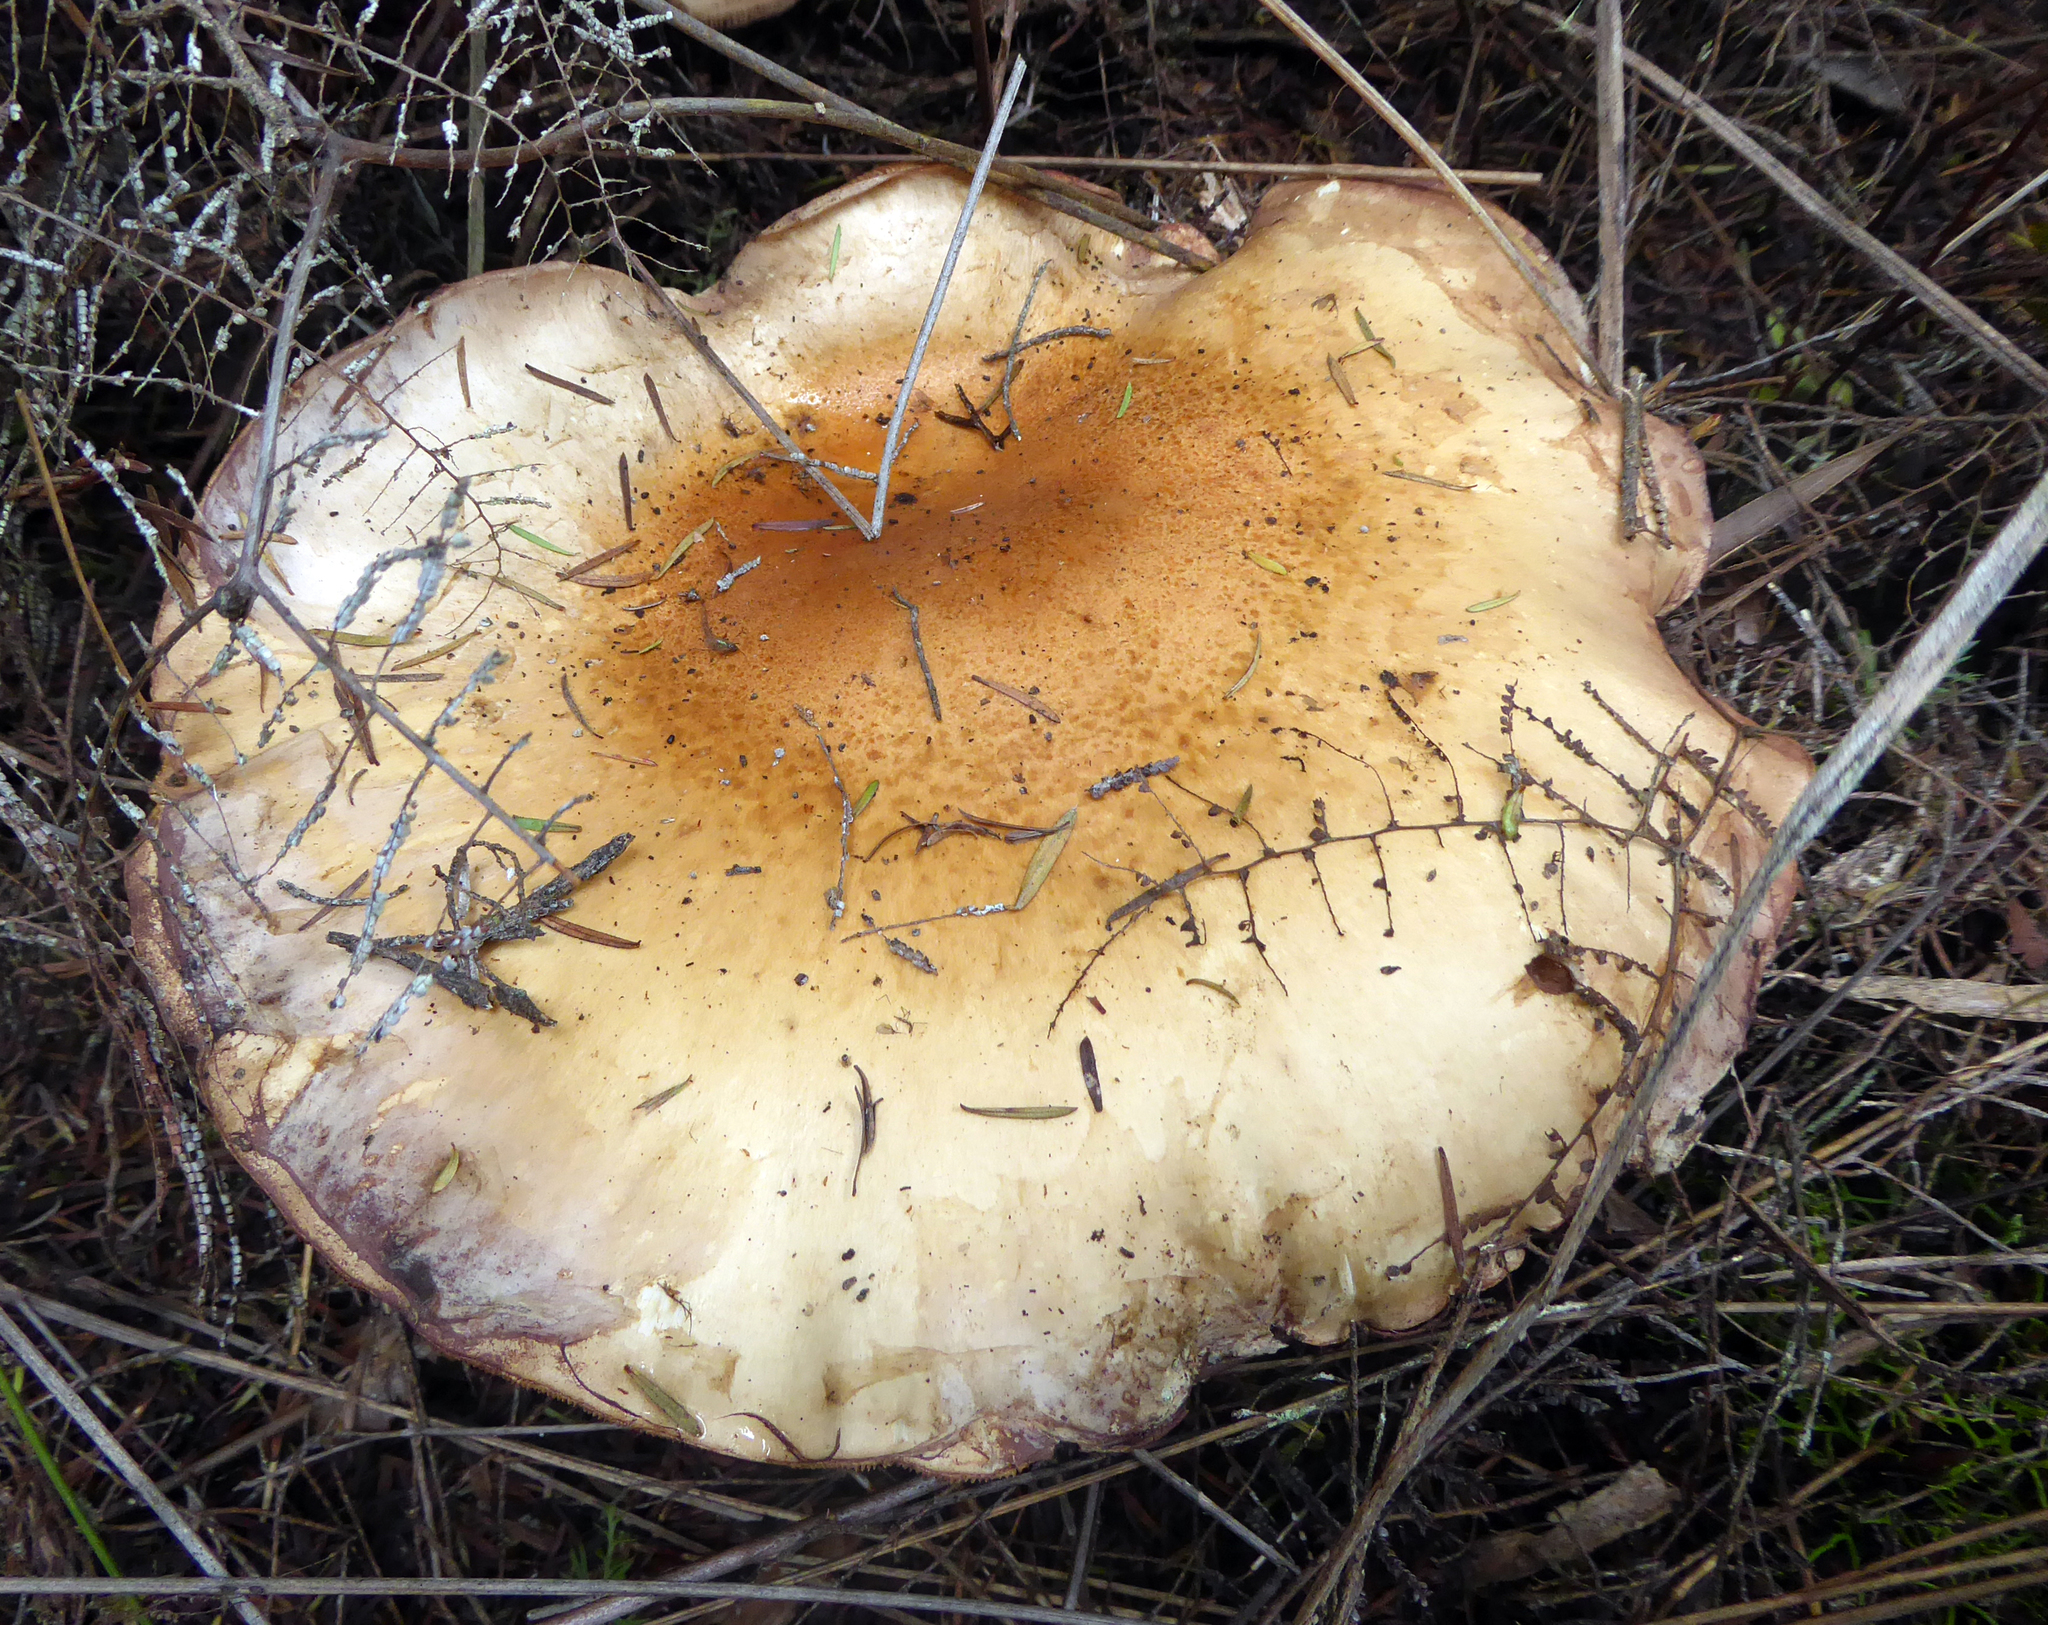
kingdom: Fungi
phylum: Basidiomycota
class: Agaricomycetes
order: Agaricales
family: Hymenogastraceae
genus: Hebeloma
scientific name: Hebeloma victoriense
